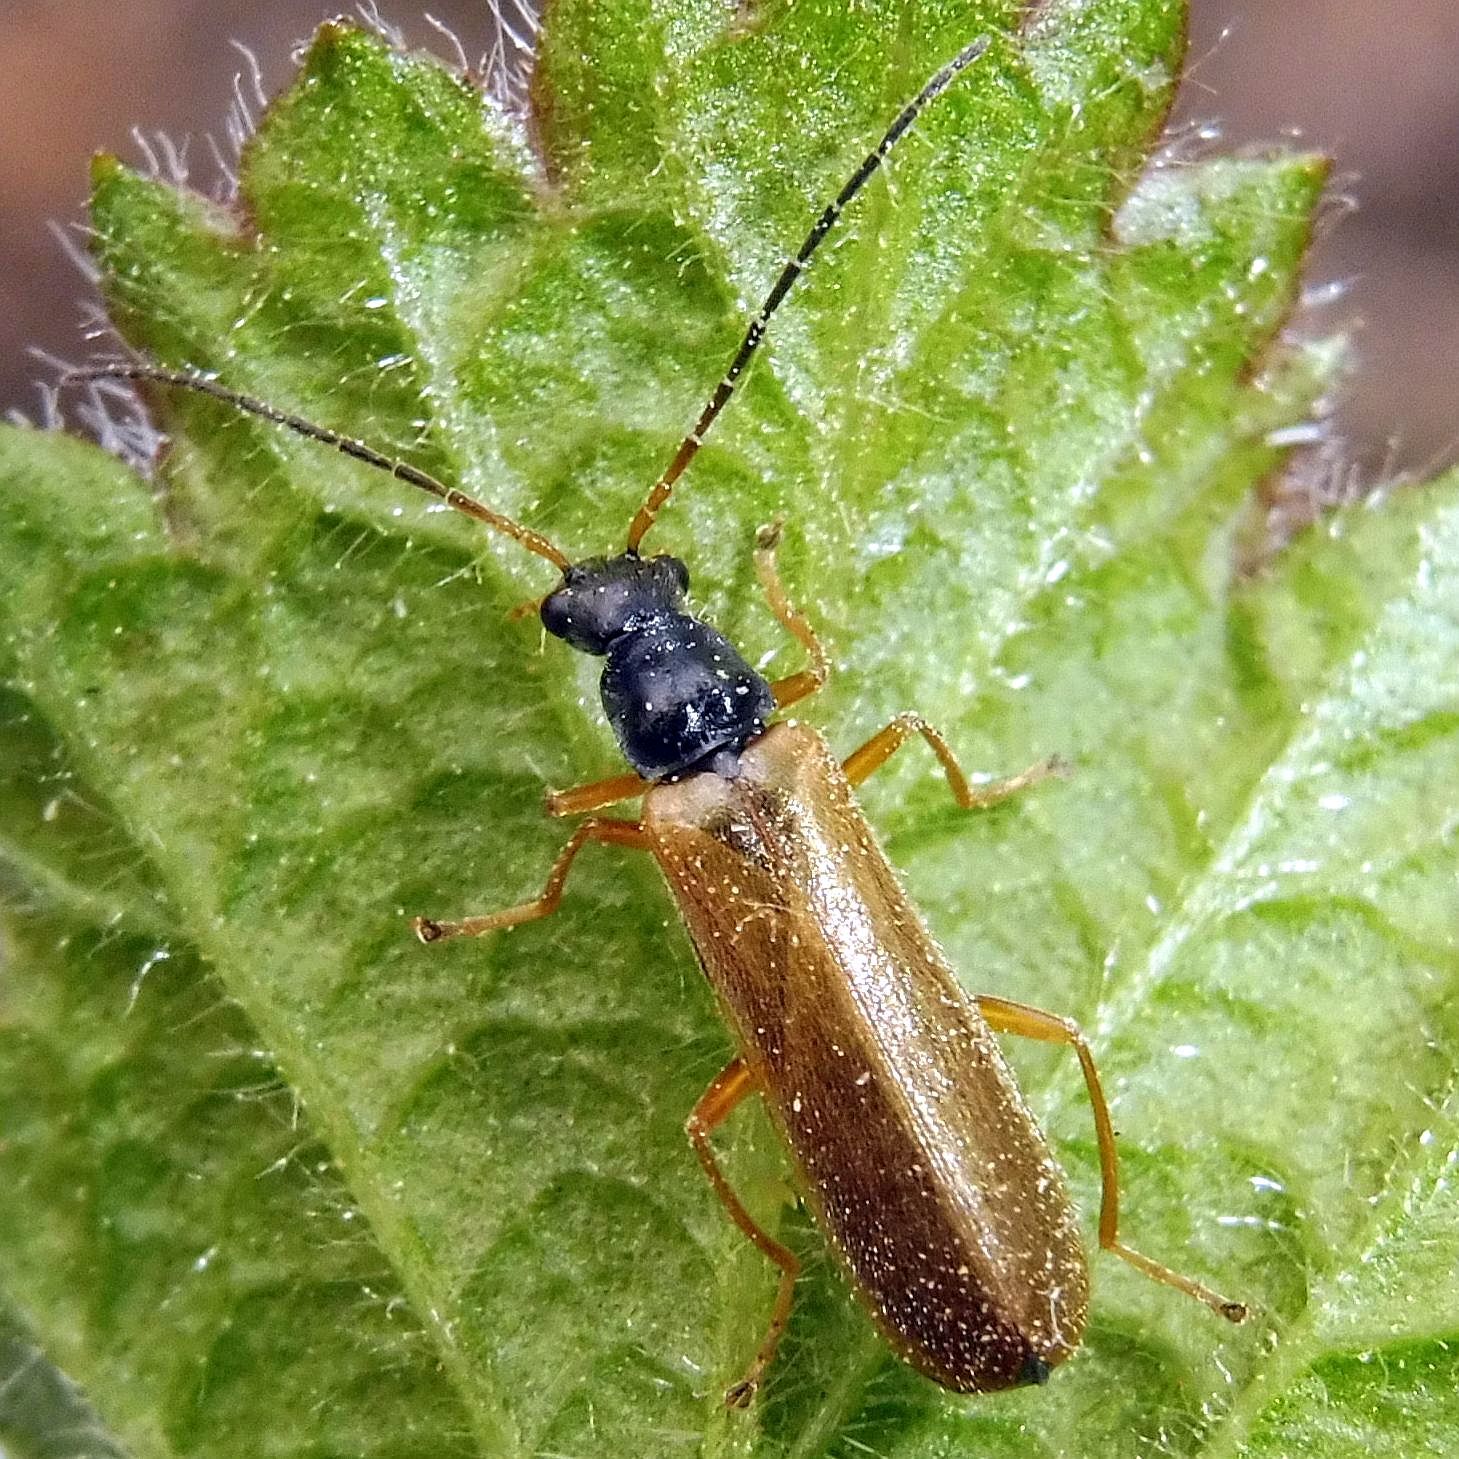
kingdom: Animalia
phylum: Arthropoda
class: Insecta
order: Coleoptera
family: Cantharidae
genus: Rhagonycha
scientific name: Rhagonycha lignosa
